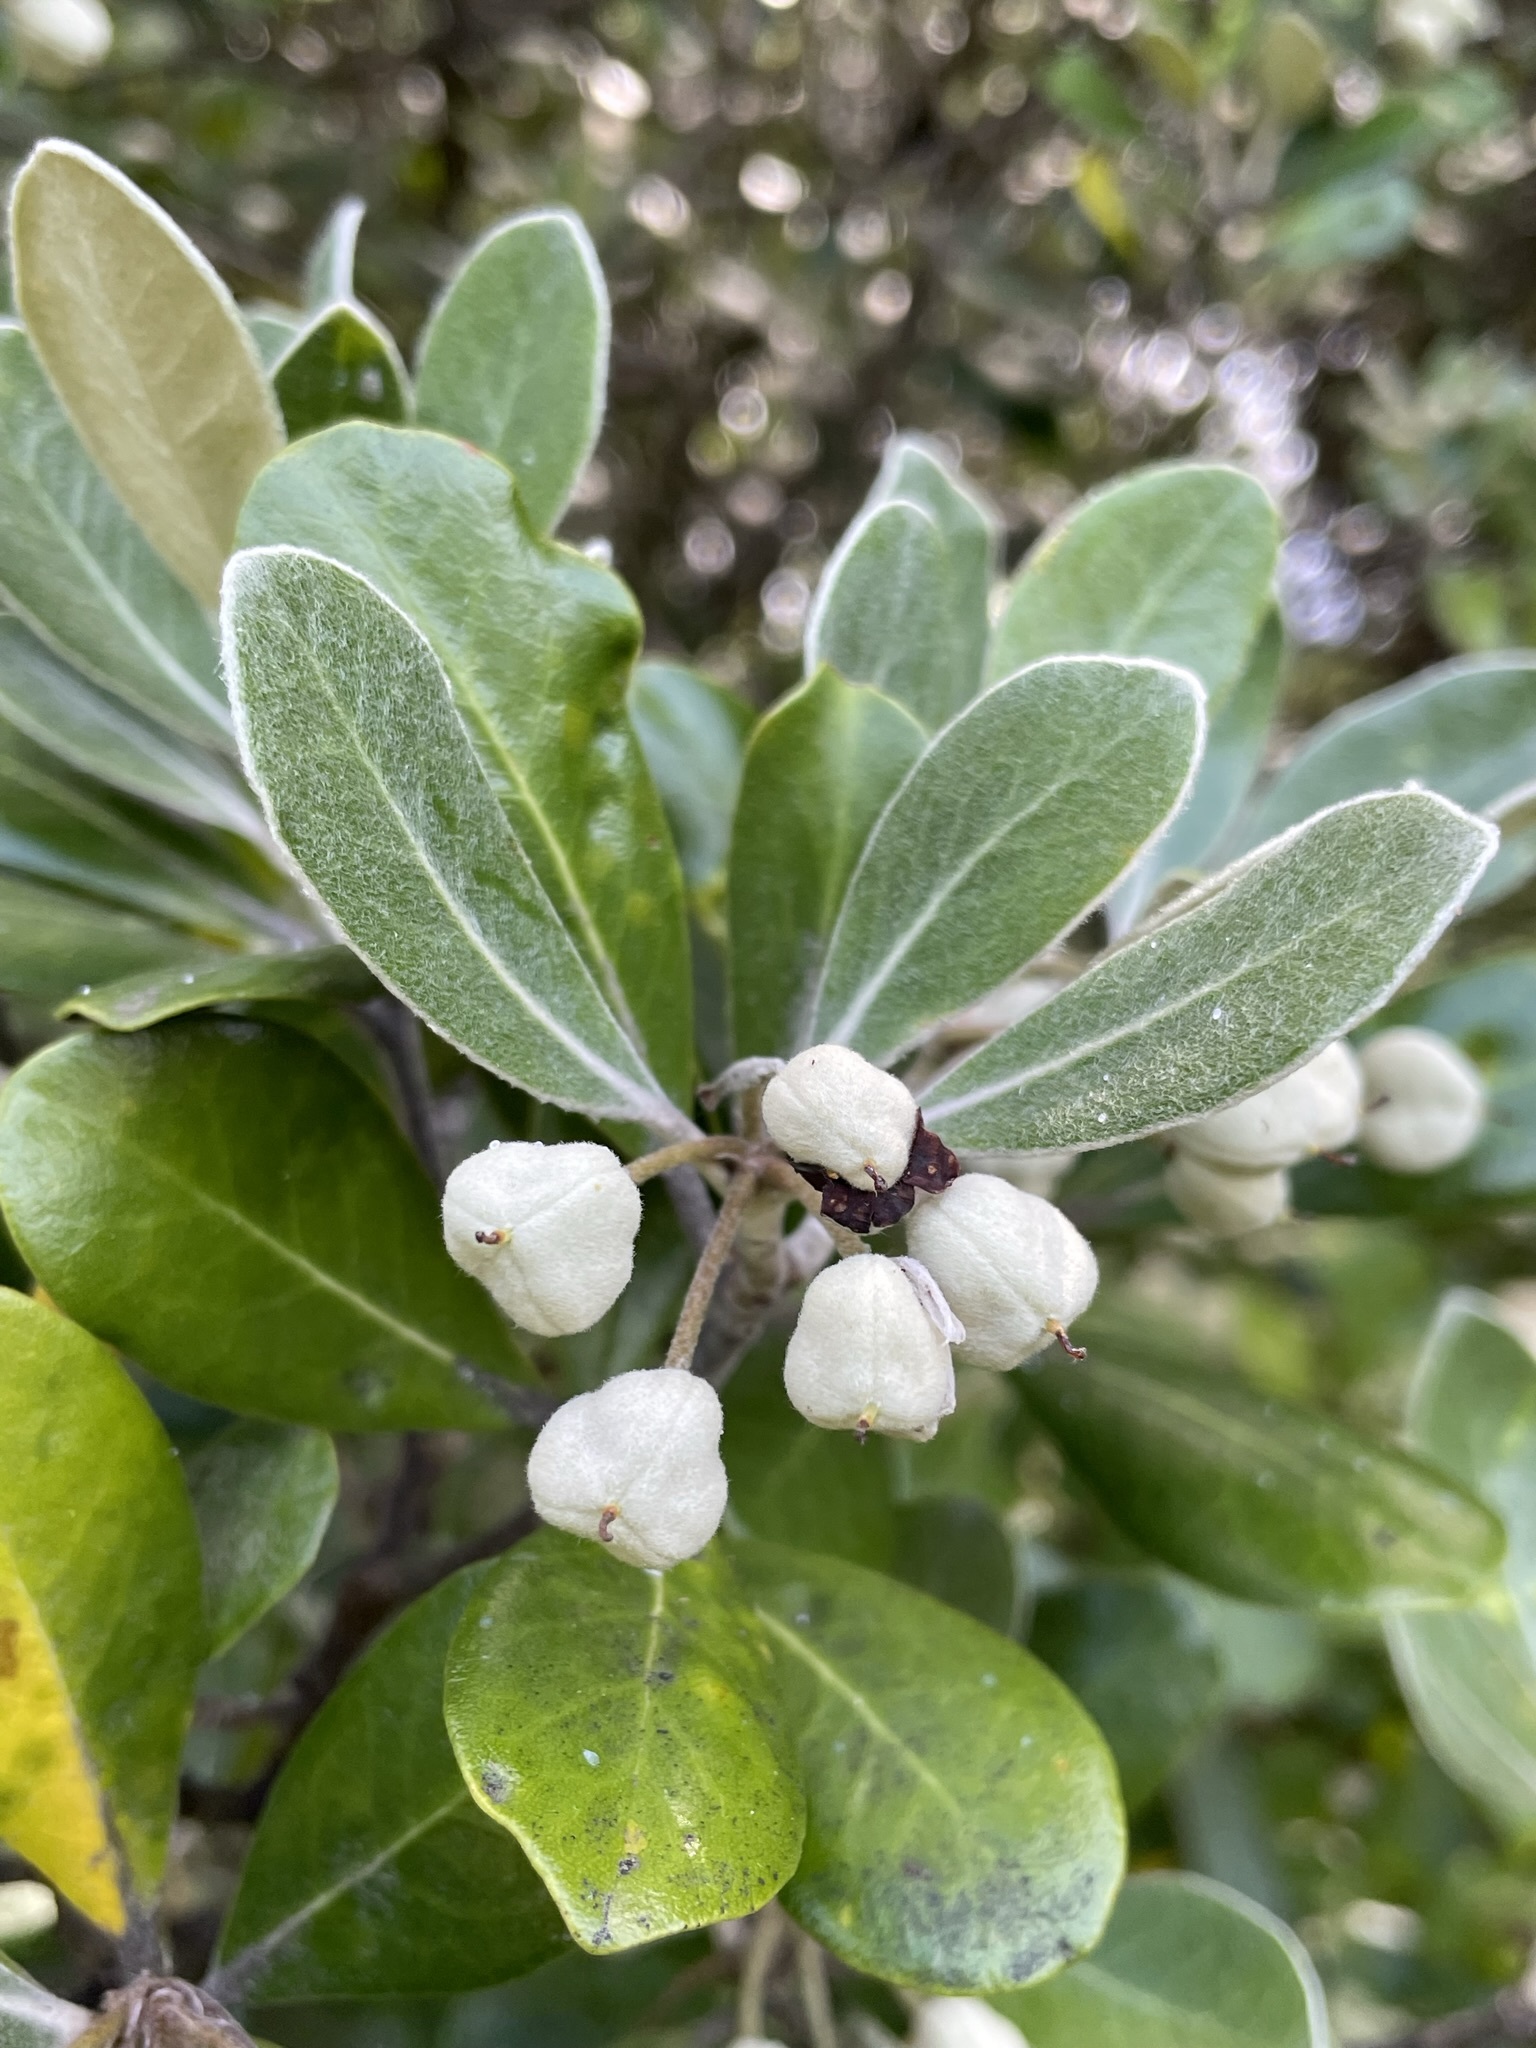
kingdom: Plantae
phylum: Tracheophyta
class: Magnoliopsida
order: Apiales
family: Pittosporaceae
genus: Pittosporum
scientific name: Pittosporum crassifolium
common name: Karo
